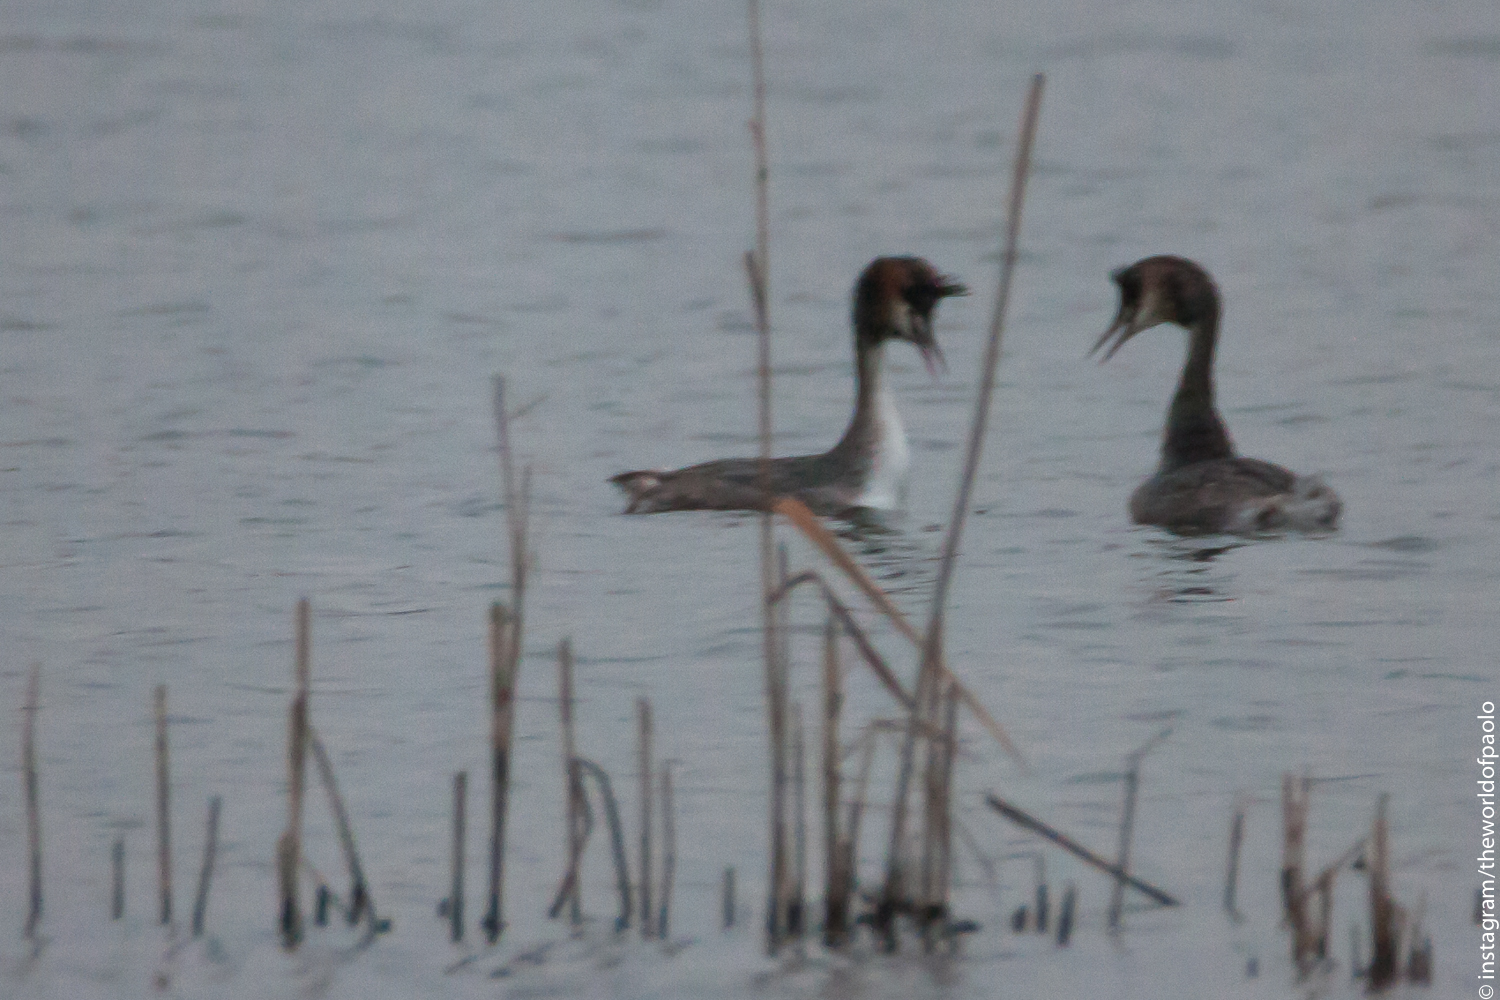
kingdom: Animalia
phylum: Chordata
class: Aves
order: Podicipediformes
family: Podicipedidae
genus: Podiceps
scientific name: Podiceps cristatus
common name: Great crested grebe
